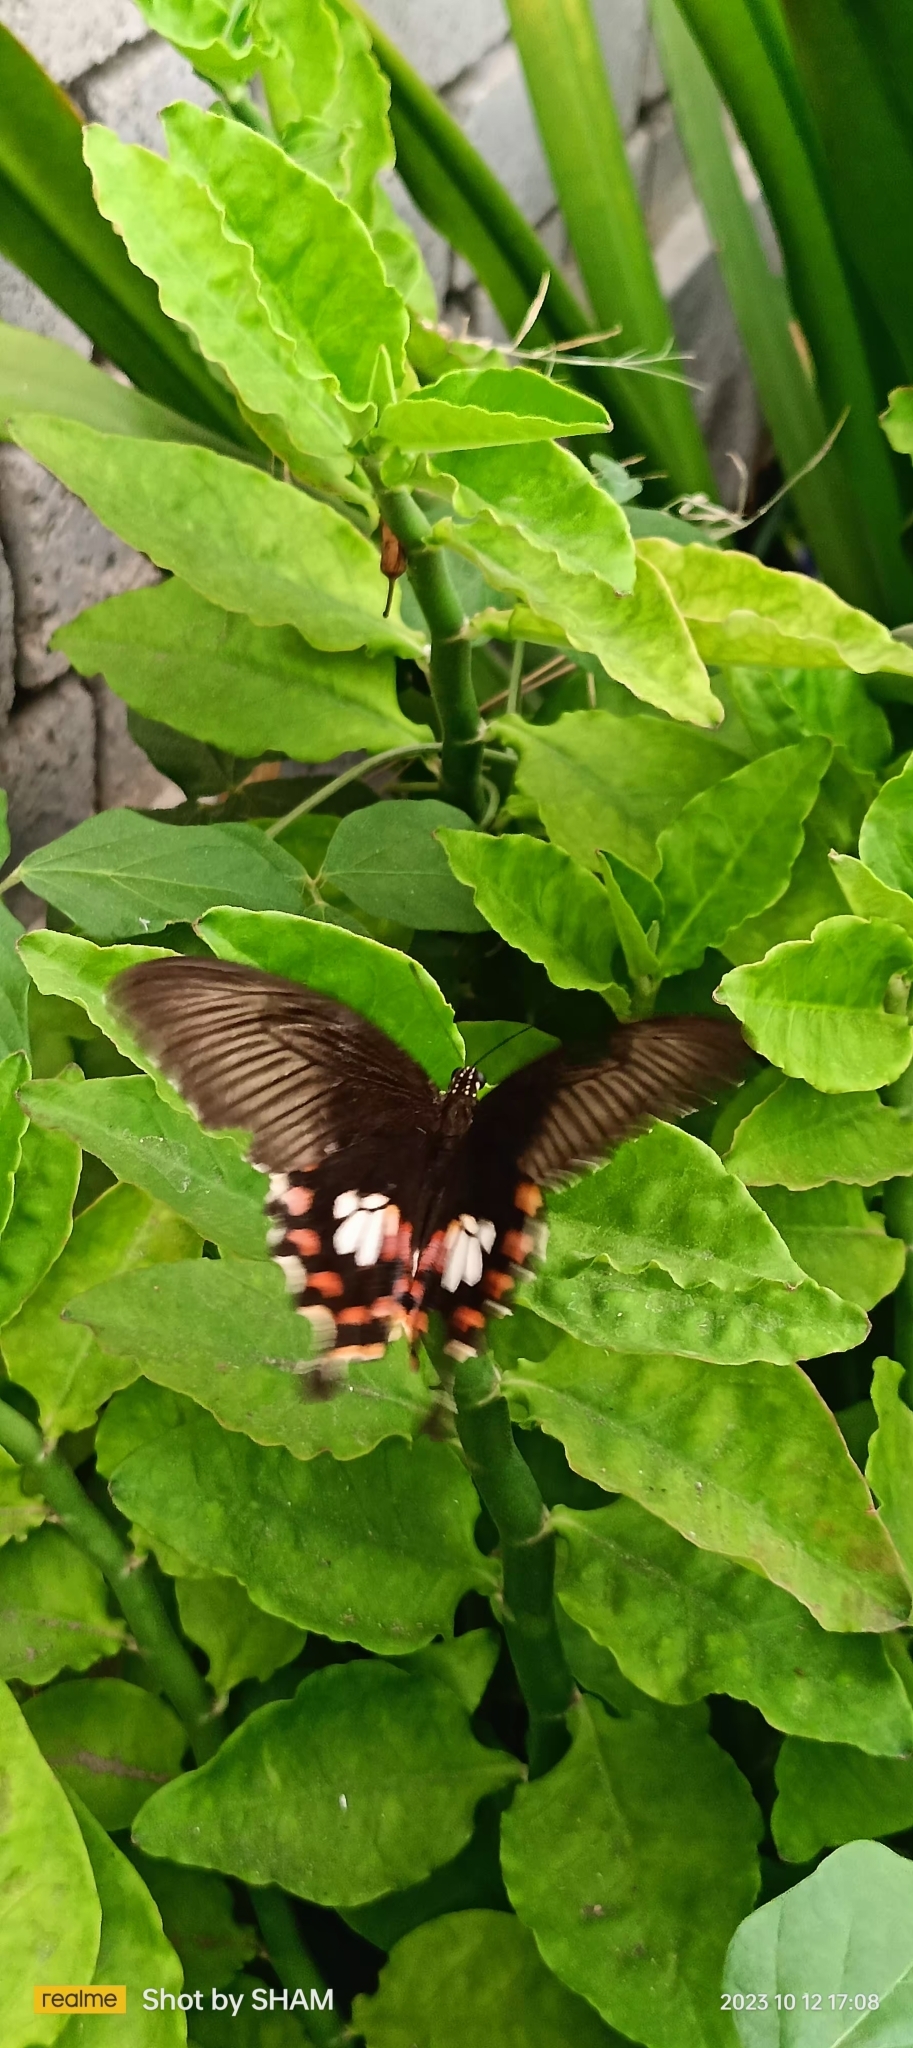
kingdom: Animalia
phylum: Arthropoda
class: Insecta
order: Lepidoptera
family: Papilionidae
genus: Papilio
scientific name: Papilio polytes
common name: Common mormon
